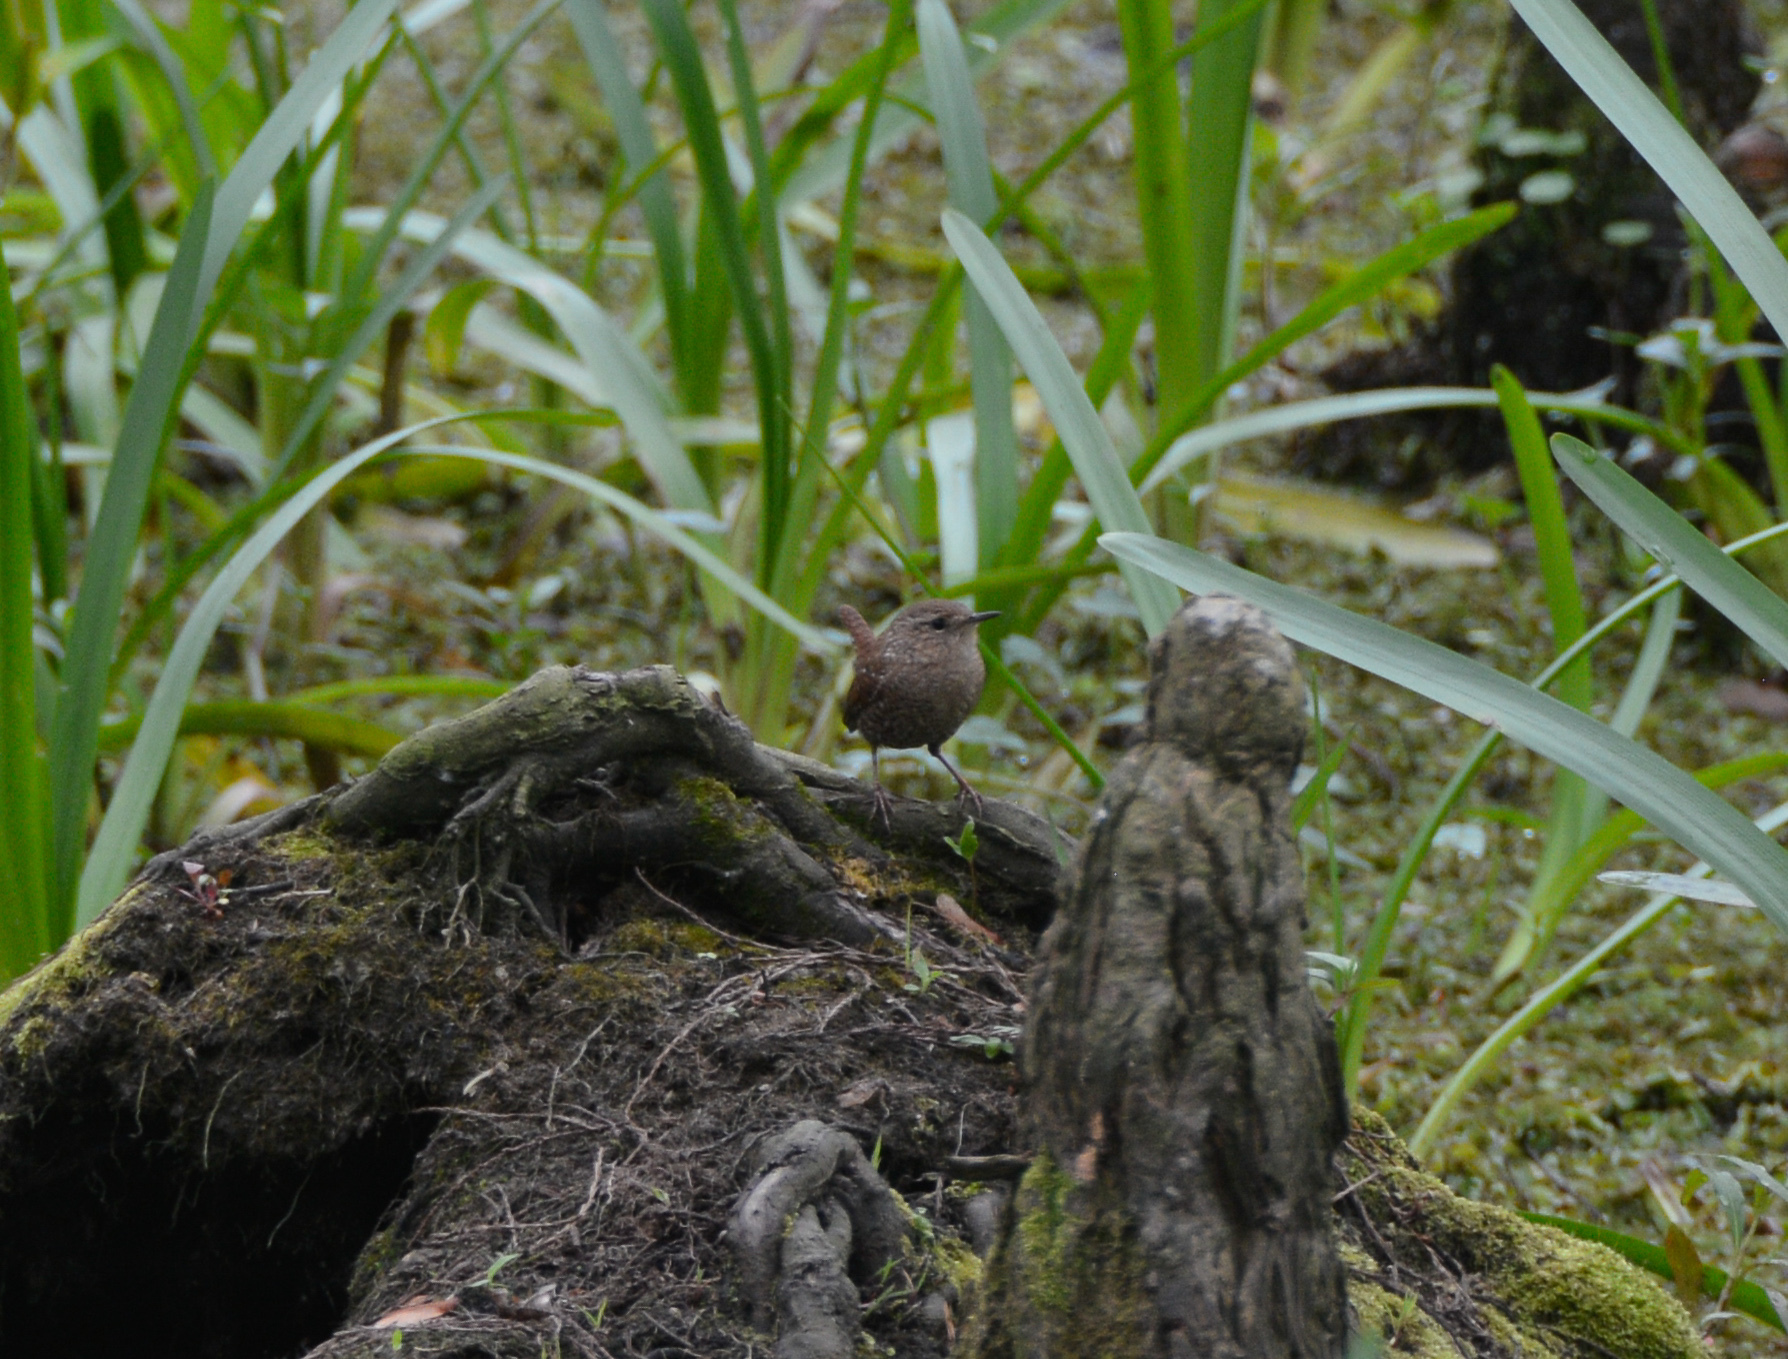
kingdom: Animalia
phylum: Chordata
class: Aves
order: Passeriformes
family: Troglodytidae
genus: Troglodytes
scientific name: Troglodytes hiemalis
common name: Winter wren
